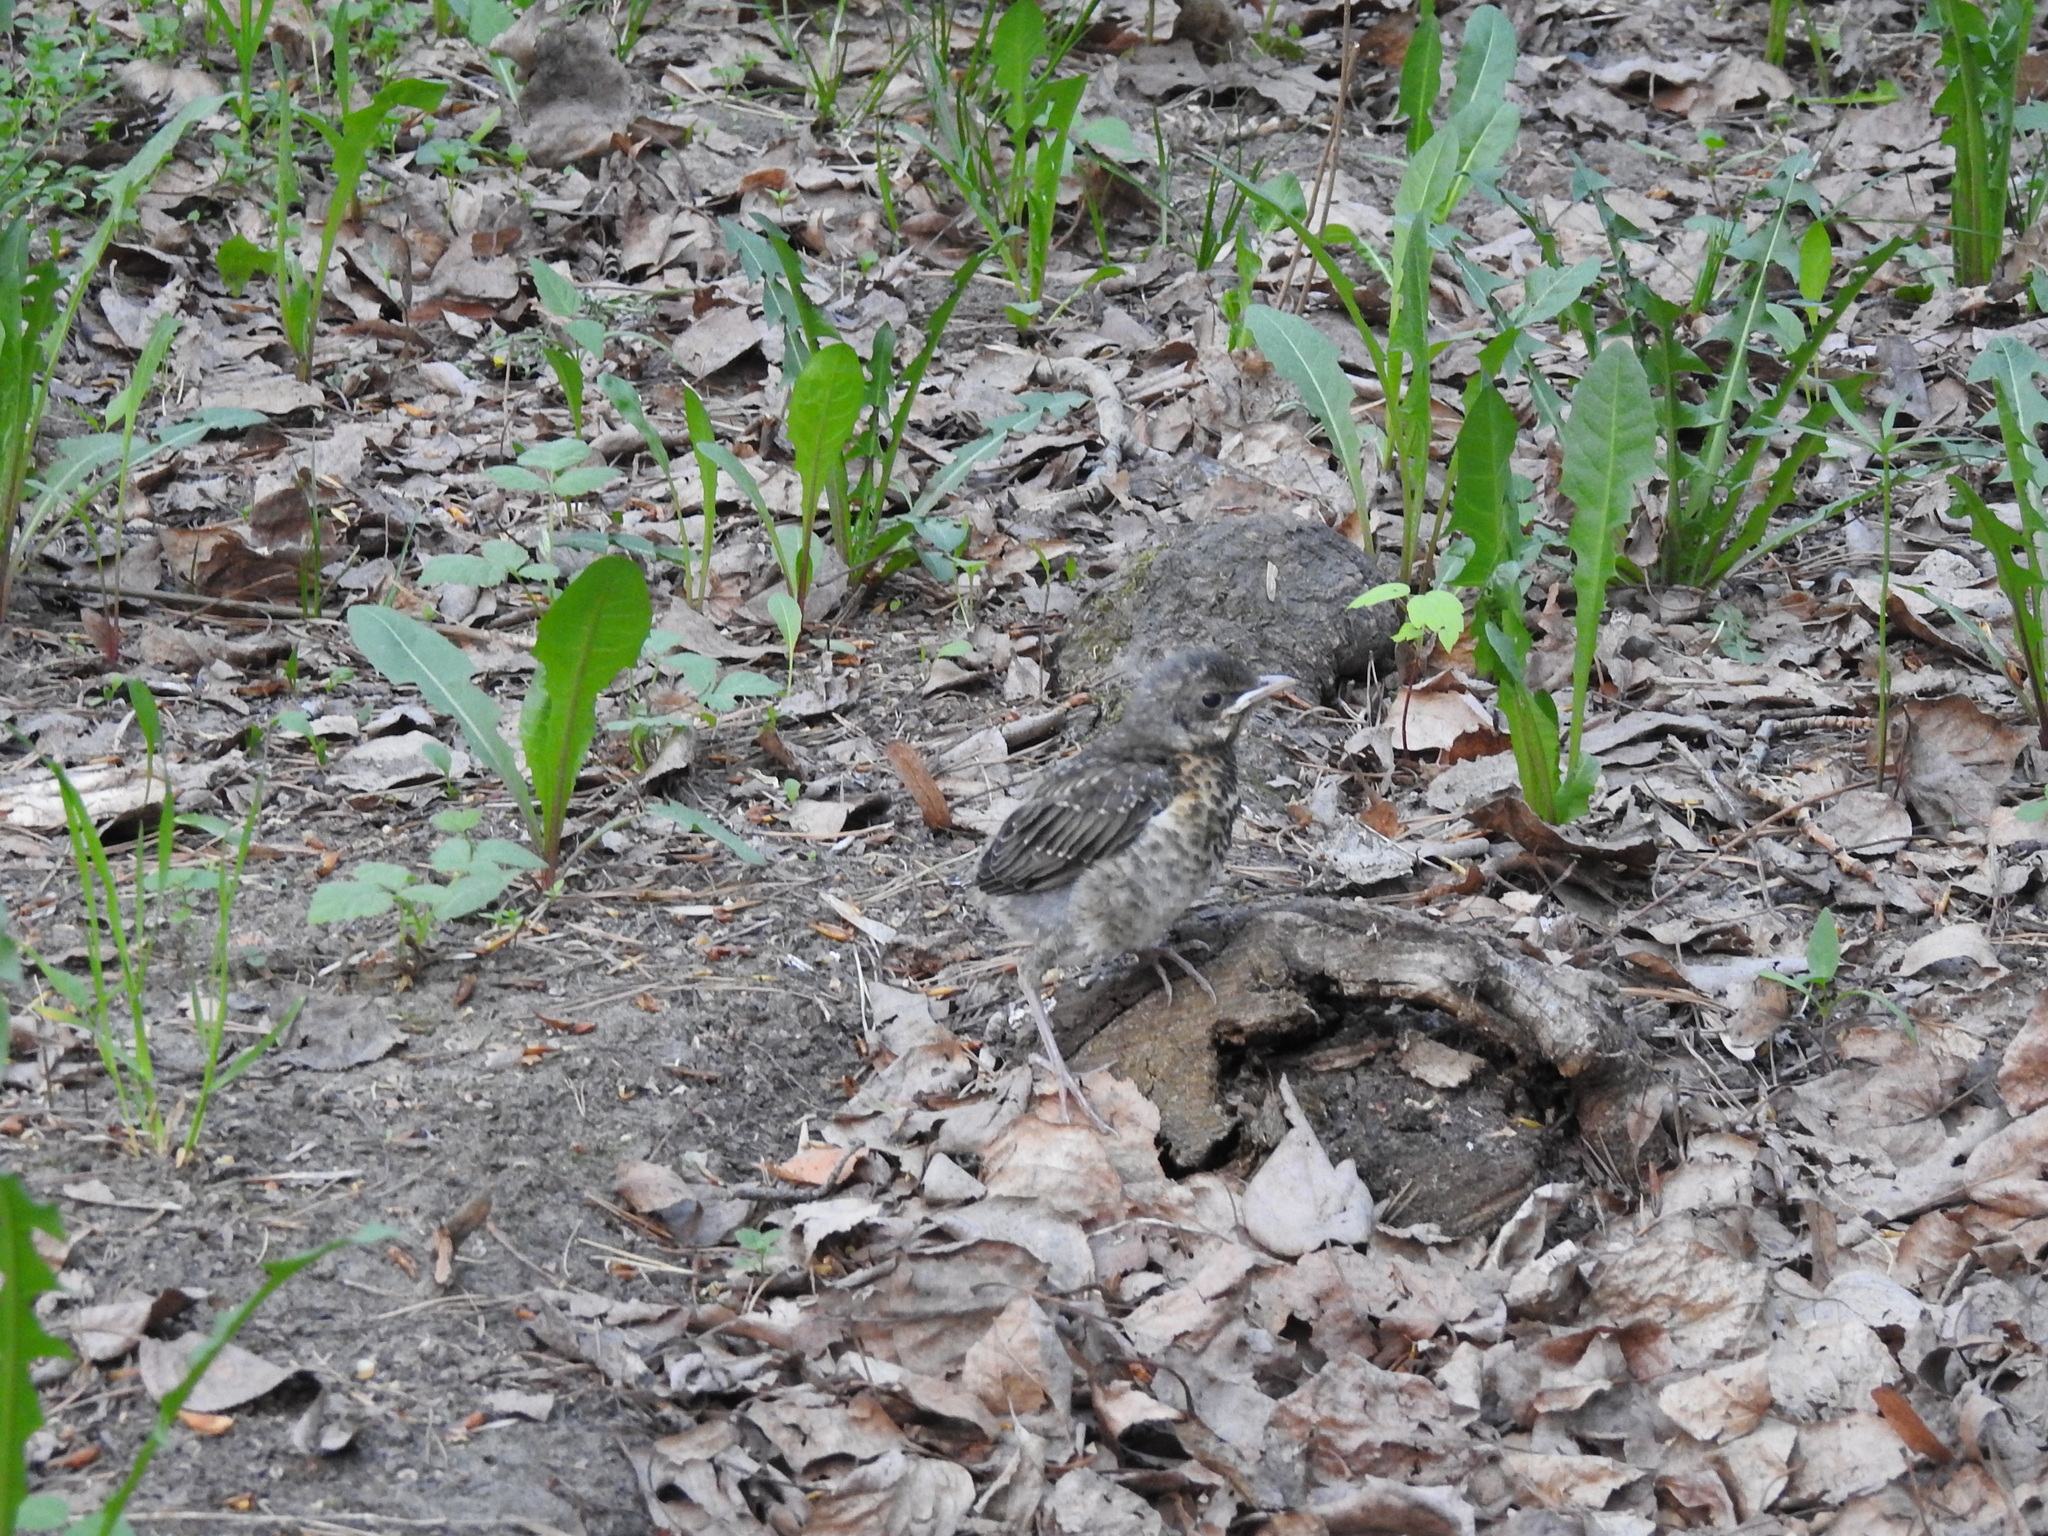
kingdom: Animalia
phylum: Chordata
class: Aves
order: Passeriformes
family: Turdidae
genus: Turdus
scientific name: Turdus pilaris
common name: Fieldfare
